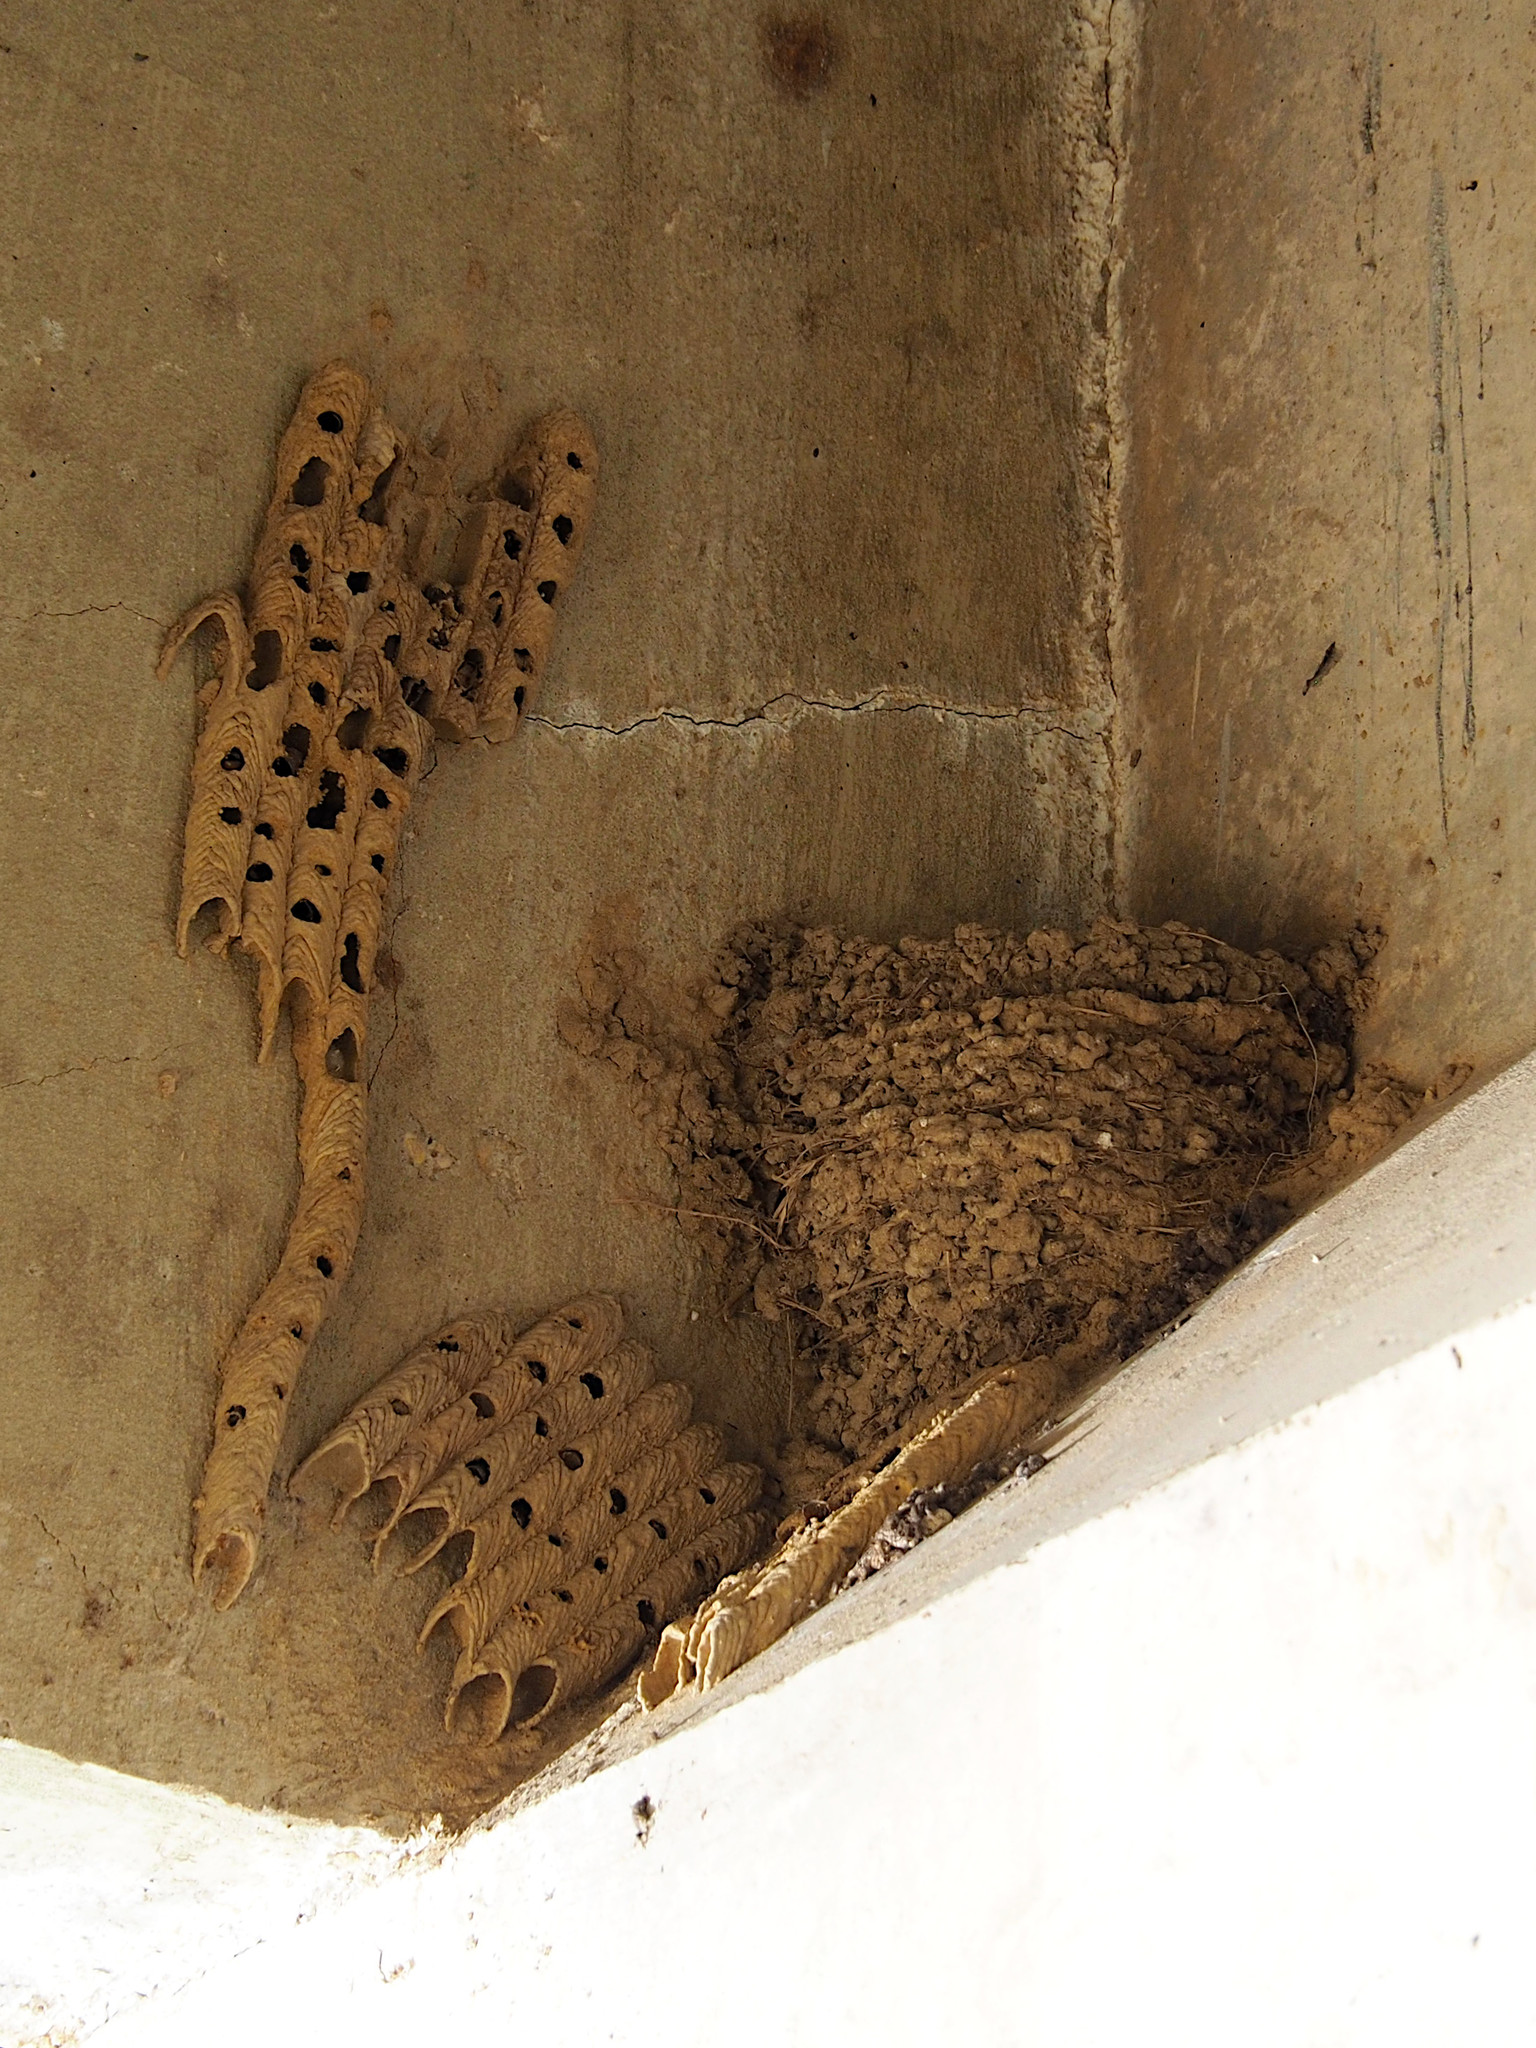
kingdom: Animalia
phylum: Chordata
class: Aves
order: Passeriformes
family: Hirundinidae
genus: Hirundo
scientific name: Hirundo rustica
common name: Barn swallow
